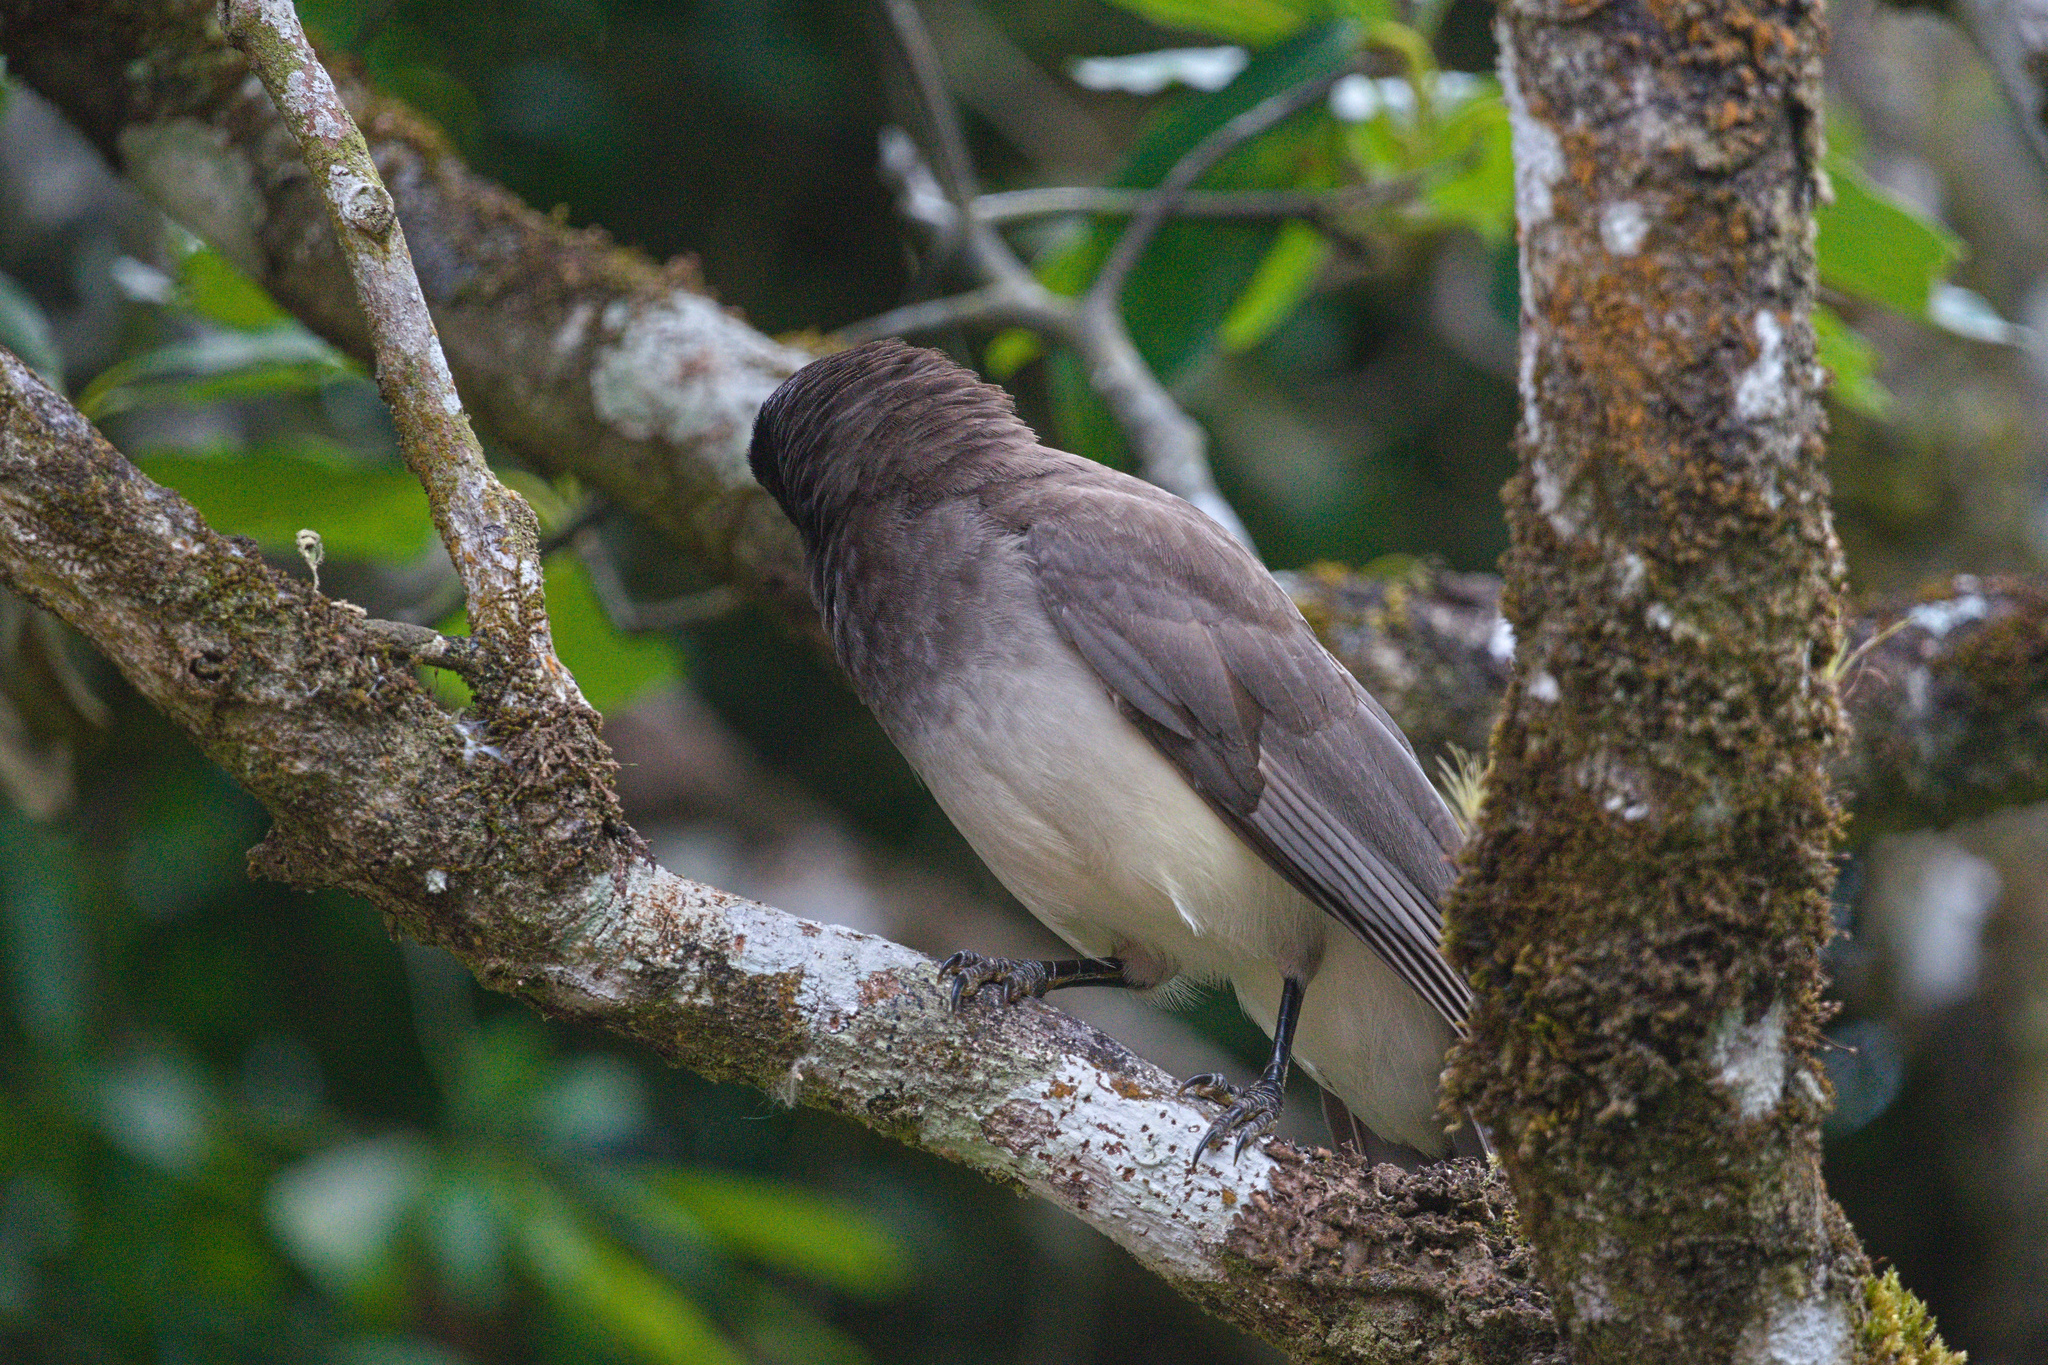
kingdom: Animalia
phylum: Chordata
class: Aves
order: Passeriformes
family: Corvidae
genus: Psilorhinus
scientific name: Psilorhinus morio
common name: Brown jay
